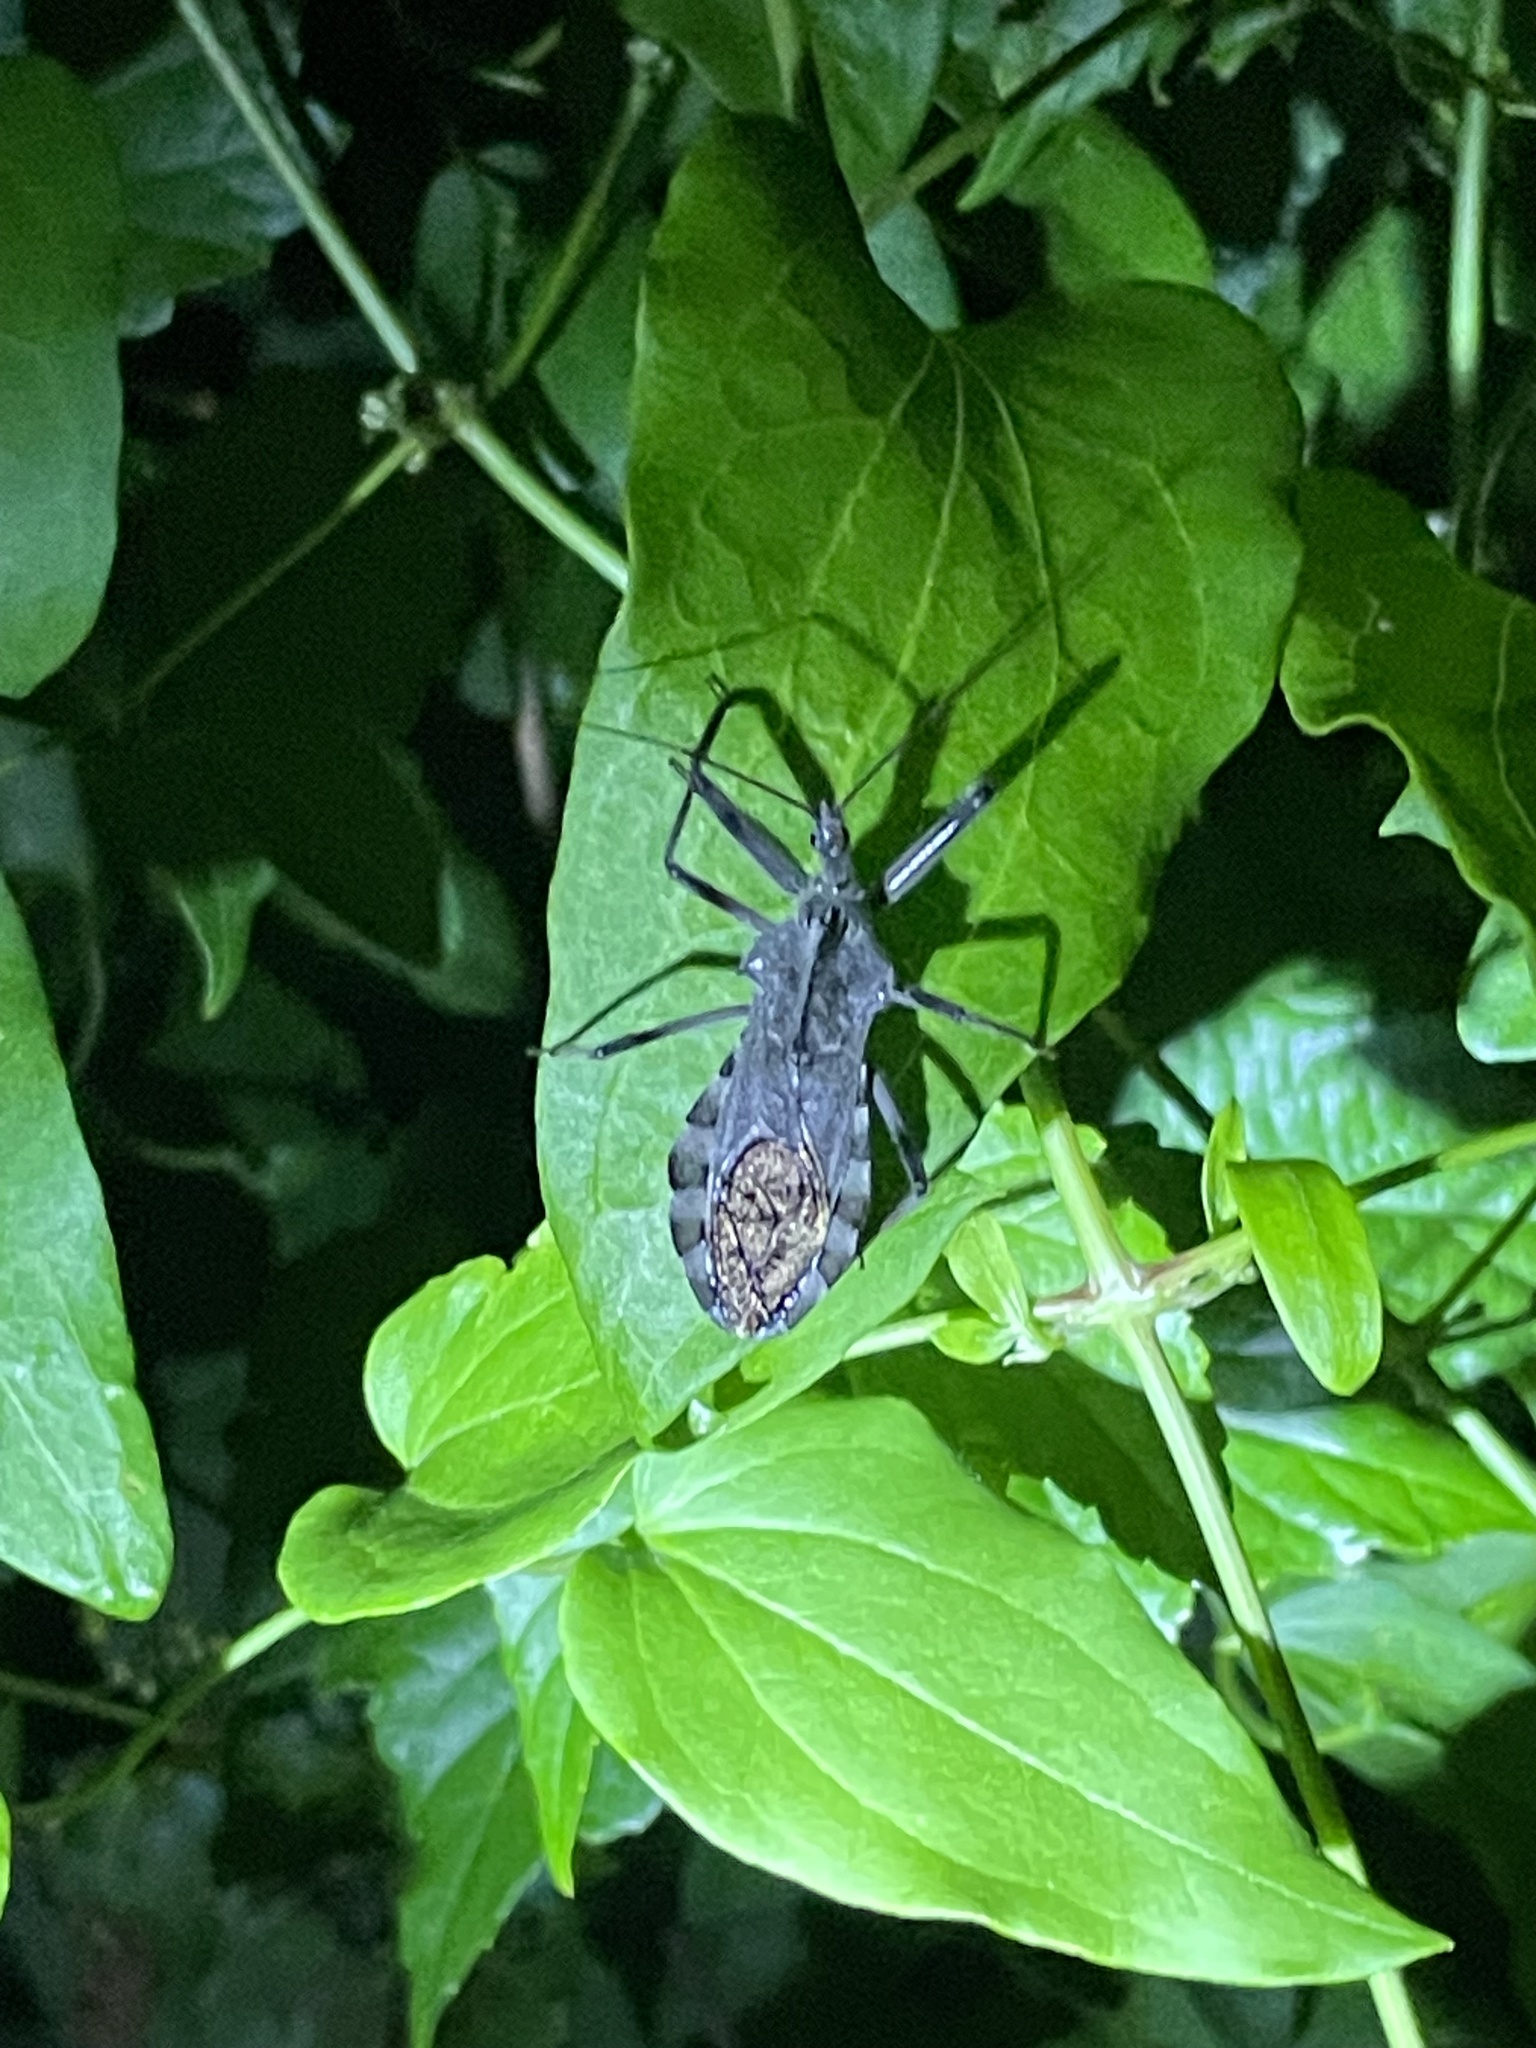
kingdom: Animalia
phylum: Arthropoda
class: Insecta
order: Hemiptera
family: Reduviidae
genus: Arilus
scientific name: Arilus cristatus
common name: North american wheel bug
